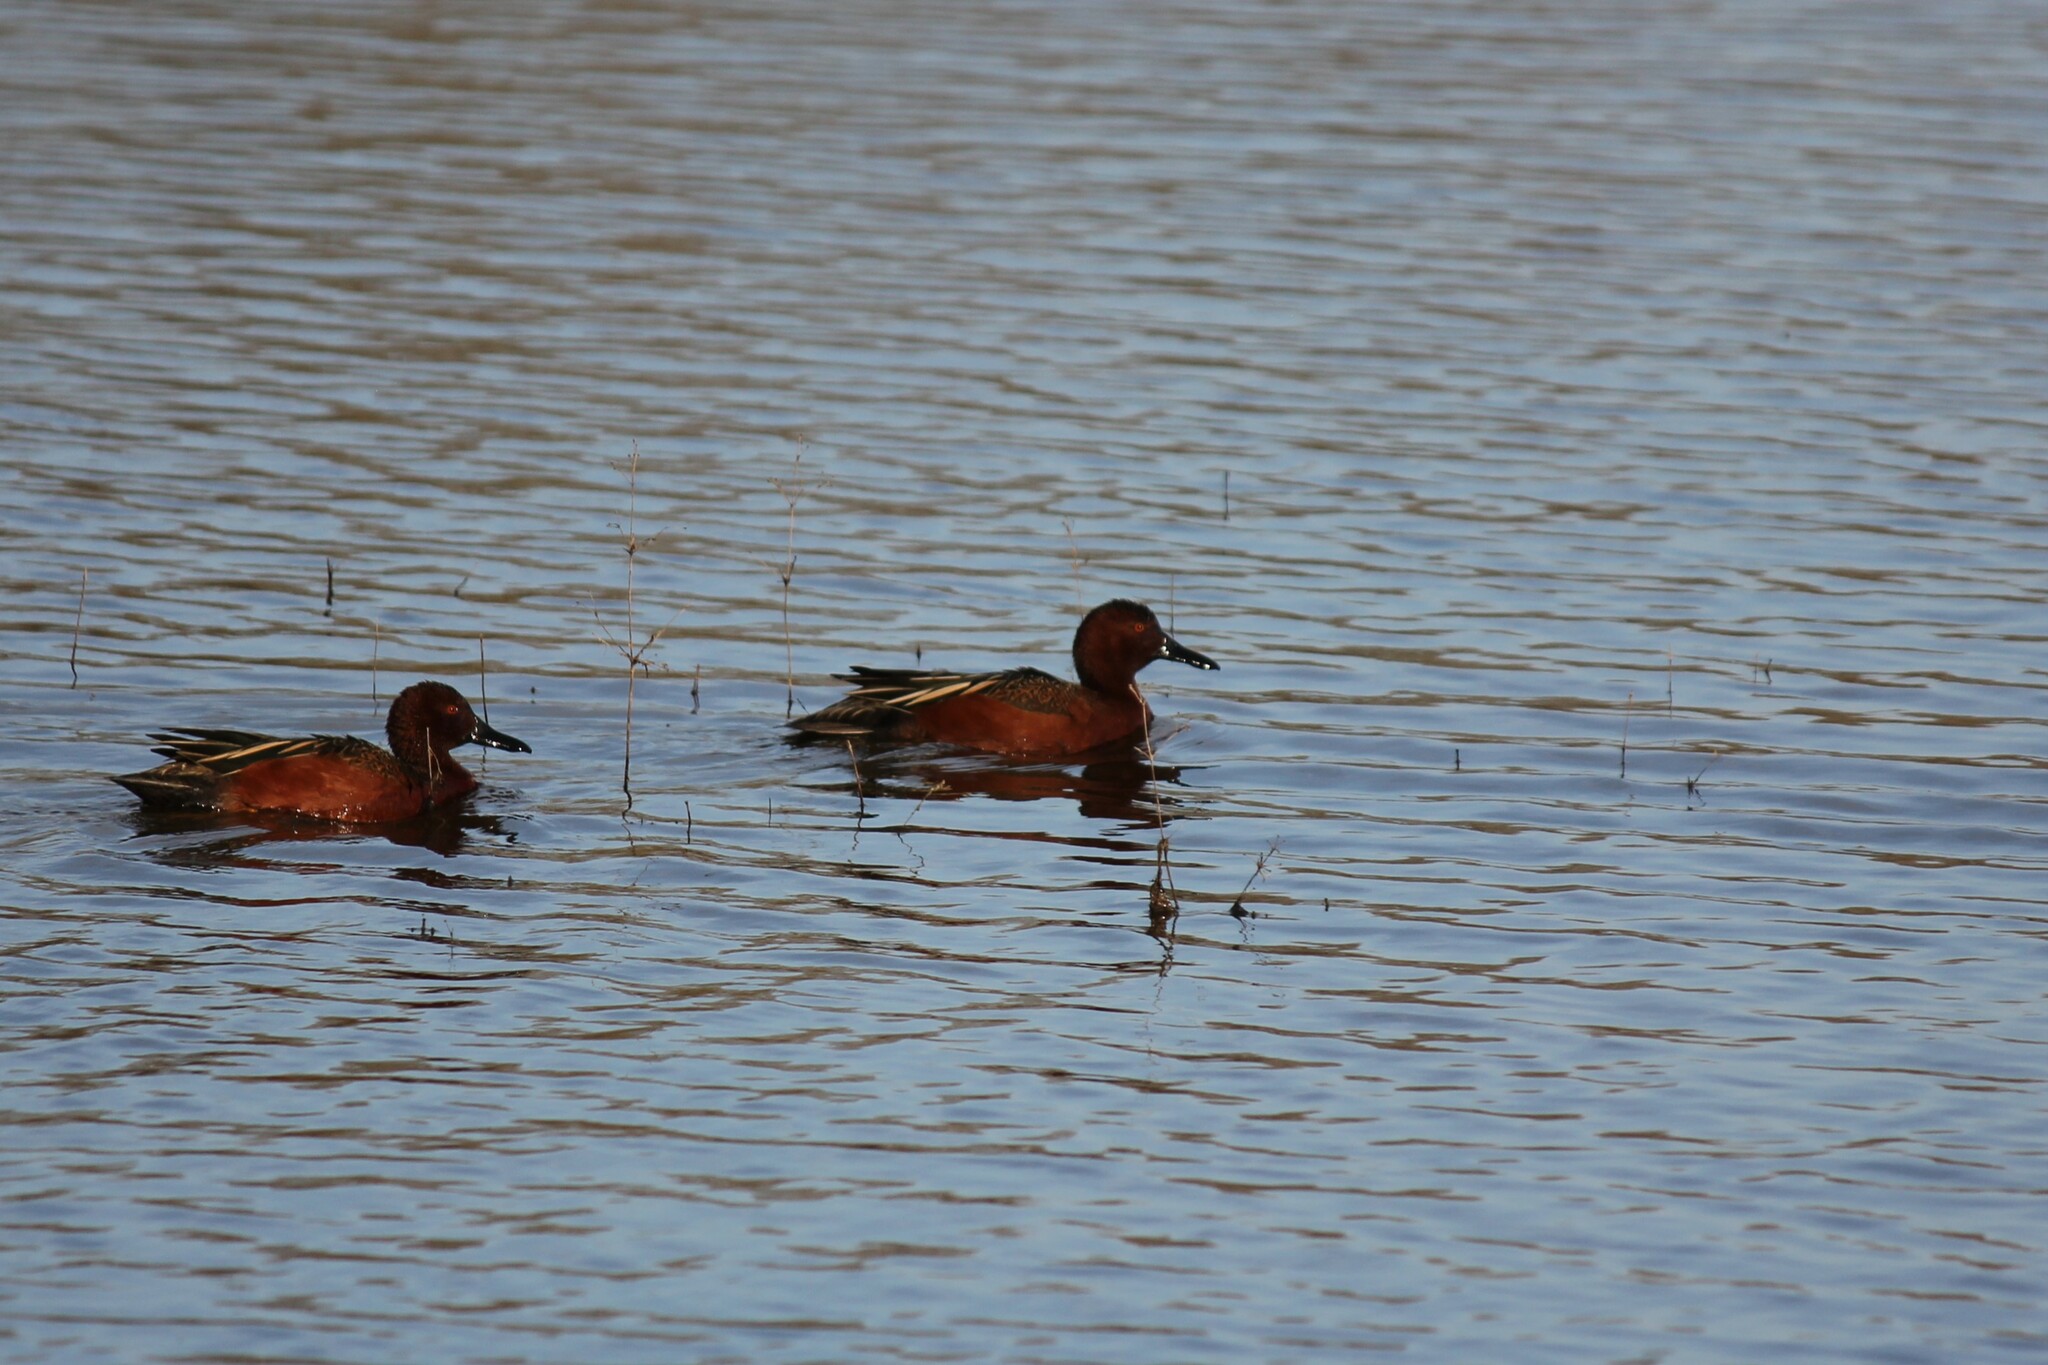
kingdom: Animalia
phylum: Chordata
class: Aves
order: Anseriformes
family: Anatidae
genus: Spatula
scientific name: Spatula cyanoptera
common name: Cinnamon teal
